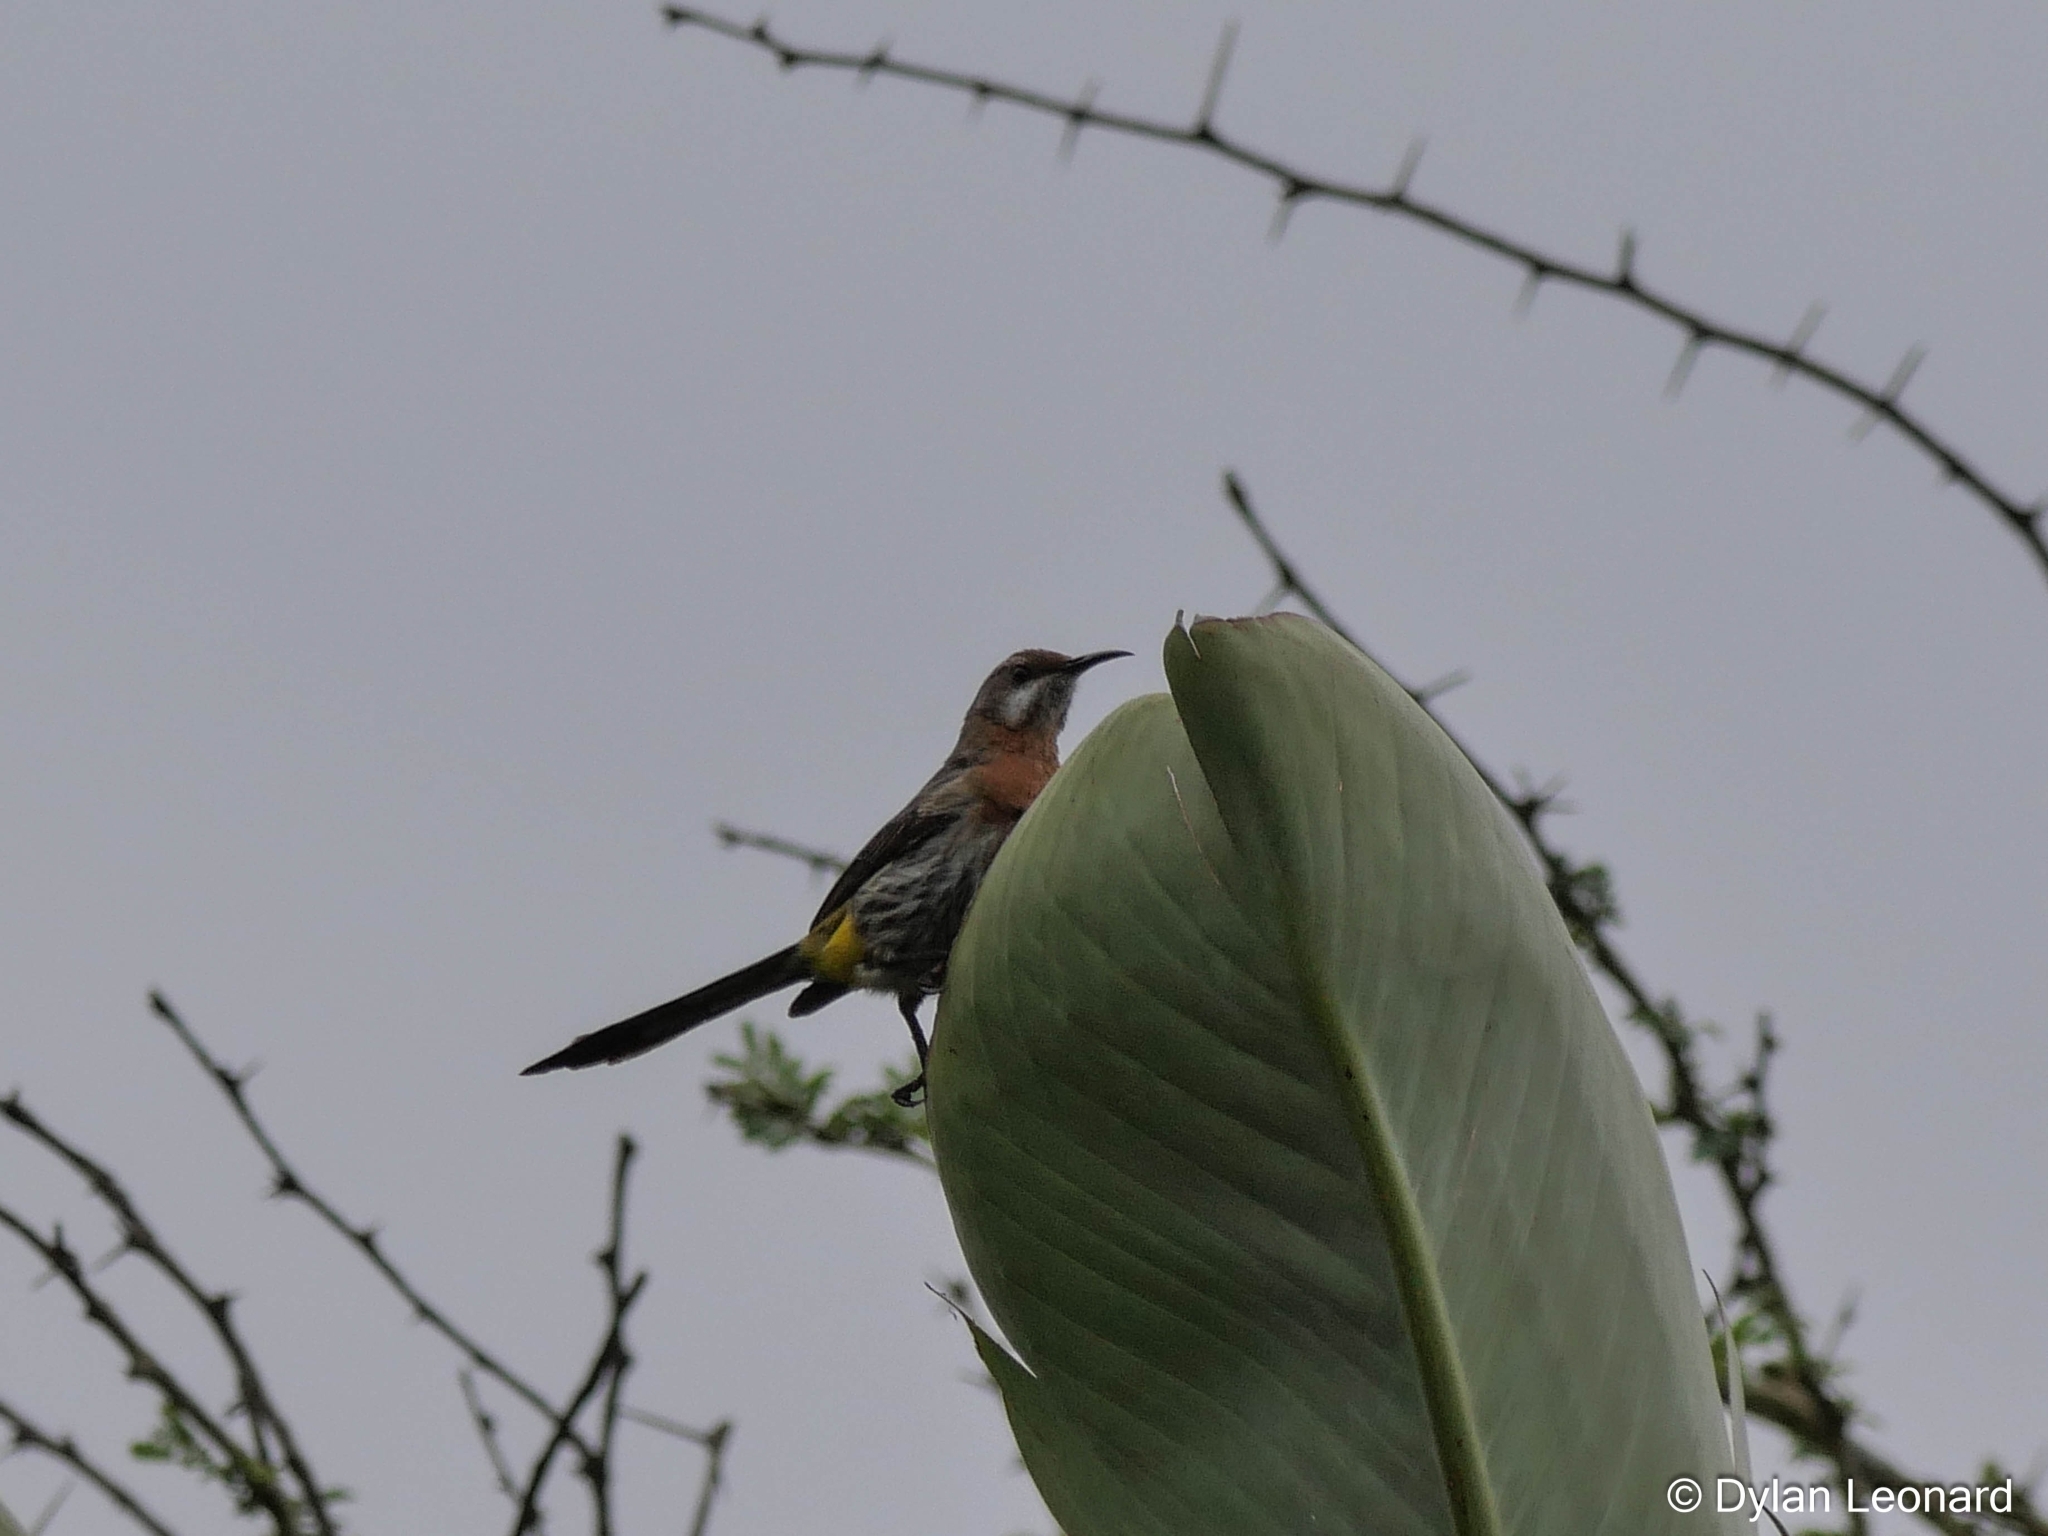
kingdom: Animalia
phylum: Chordata
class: Aves
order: Passeriformes
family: Promeropidae
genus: Promerops
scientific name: Promerops gurneyi
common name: Gurney's sugarbird
